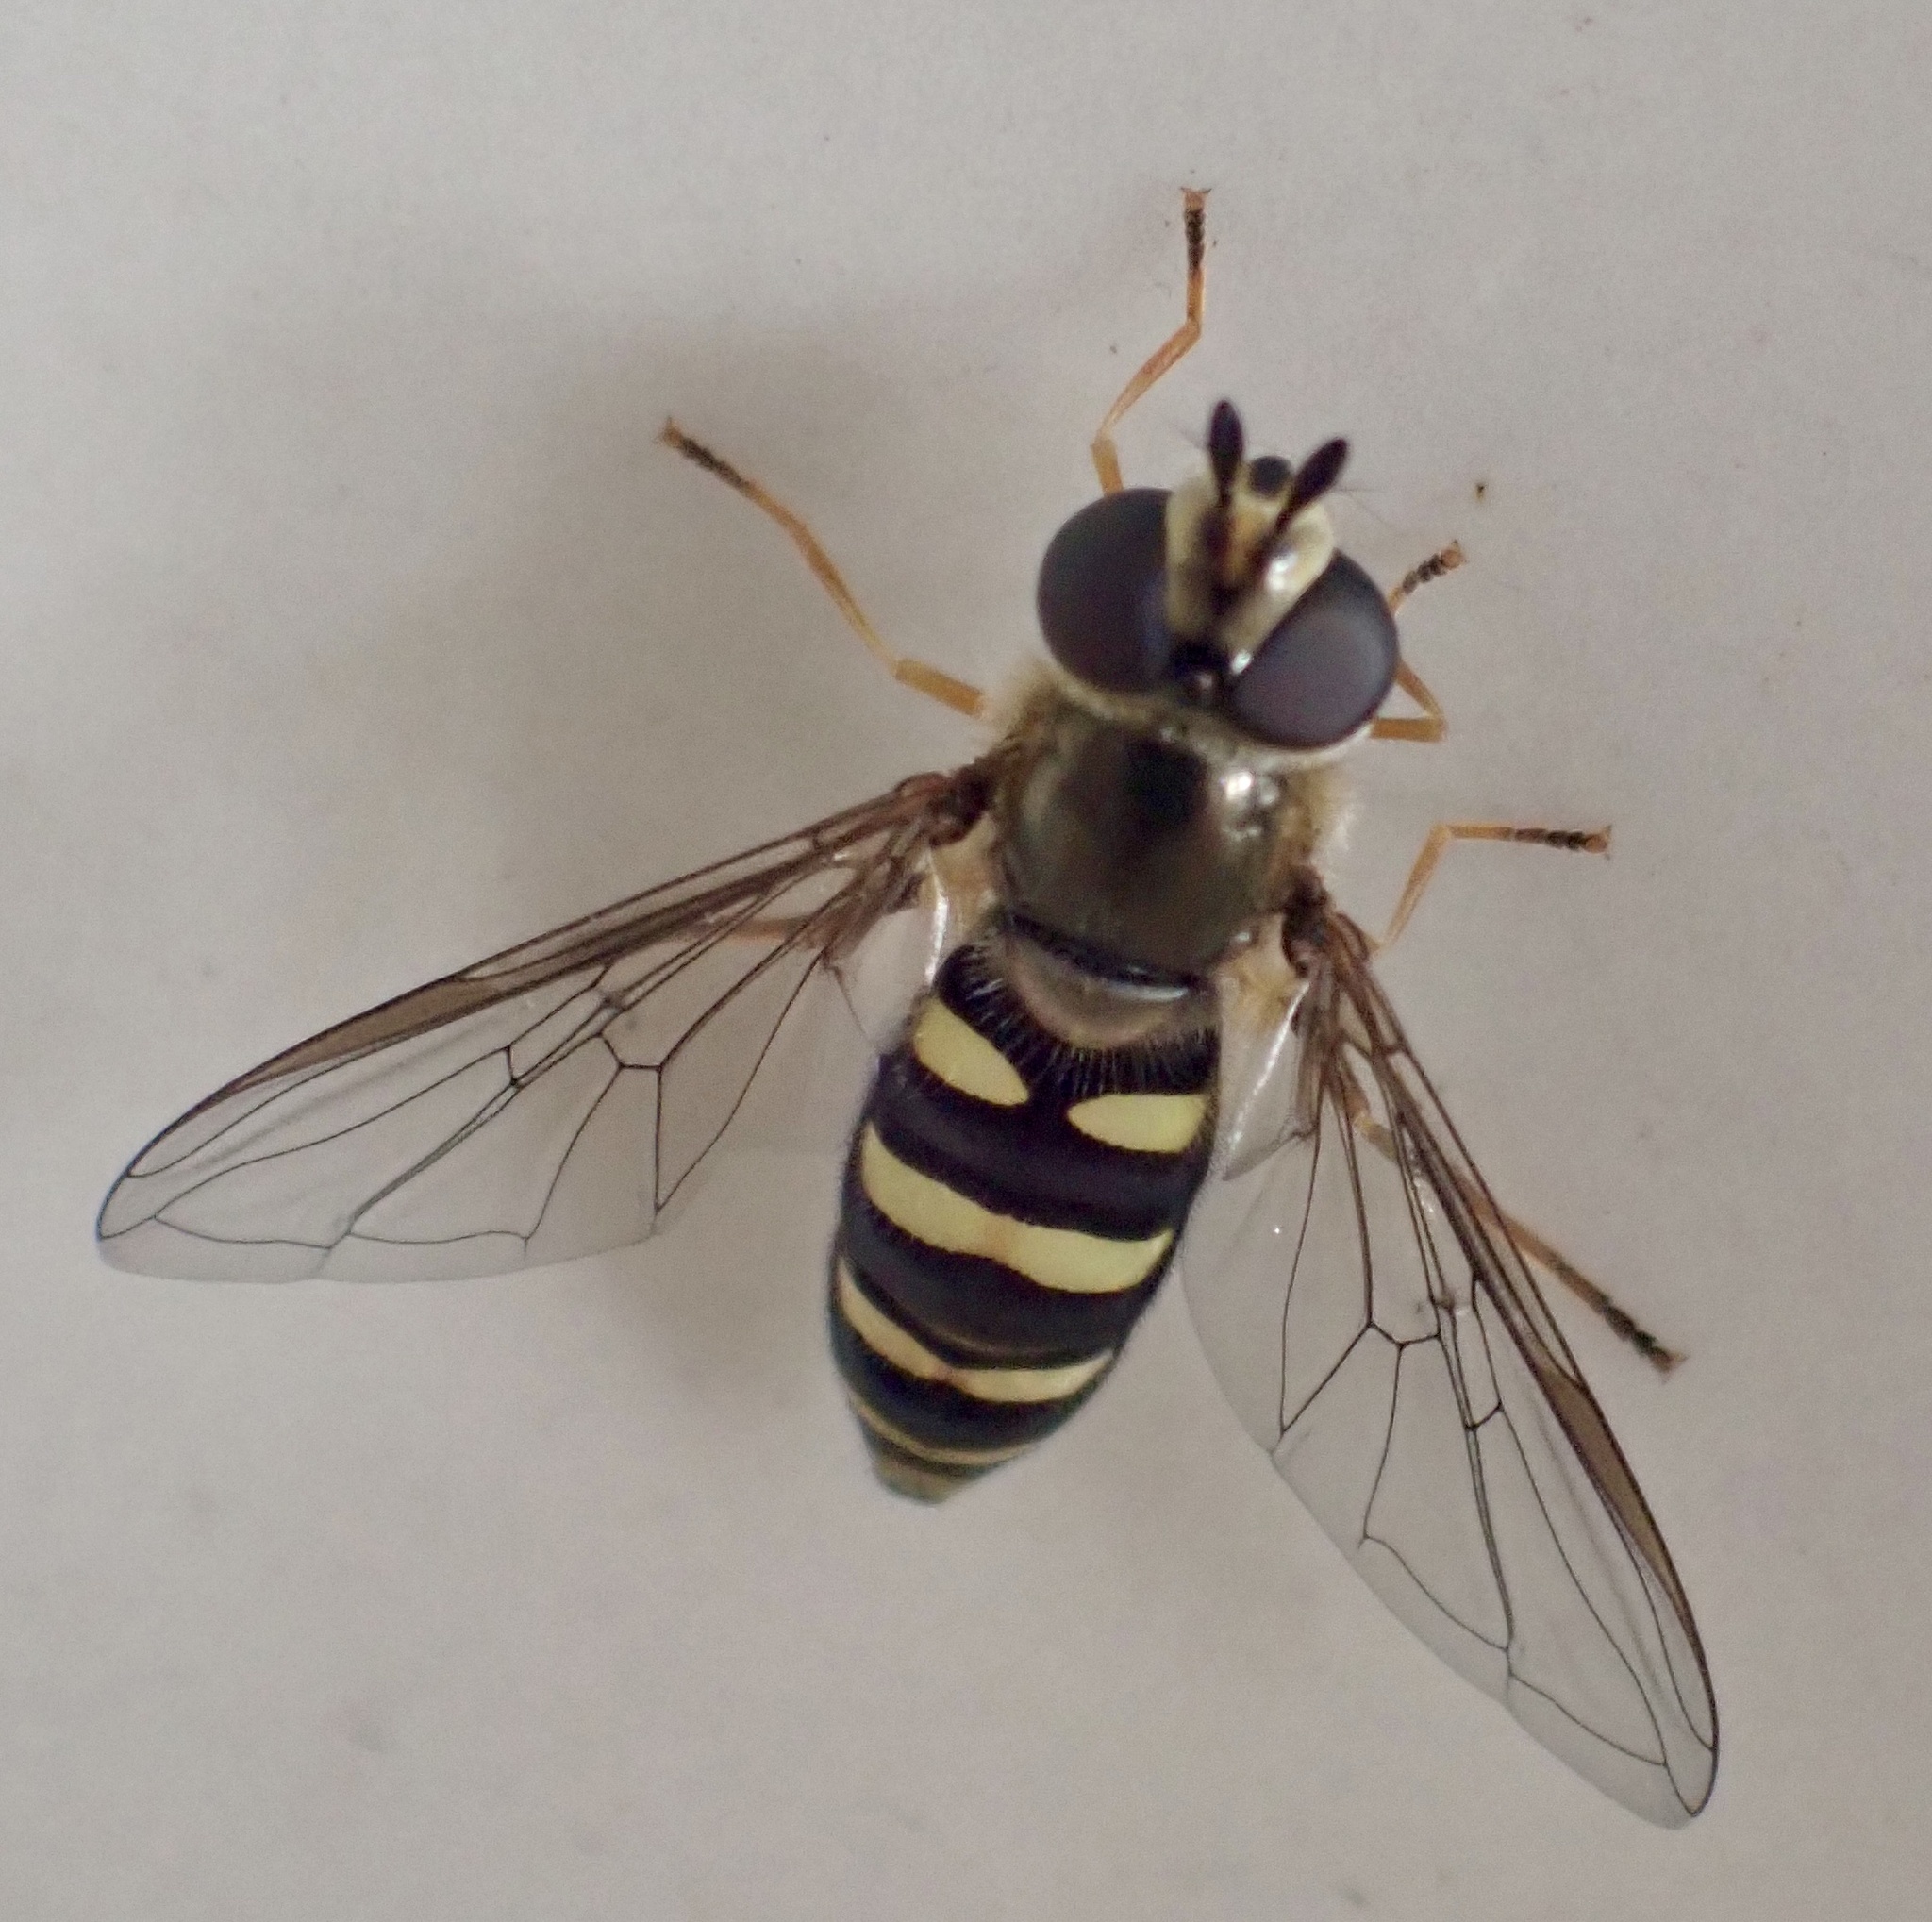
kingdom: Animalia
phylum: Arthropoda
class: Insecta
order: Diptera
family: Syrphidae
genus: Eupeodes
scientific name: Eupeodes
